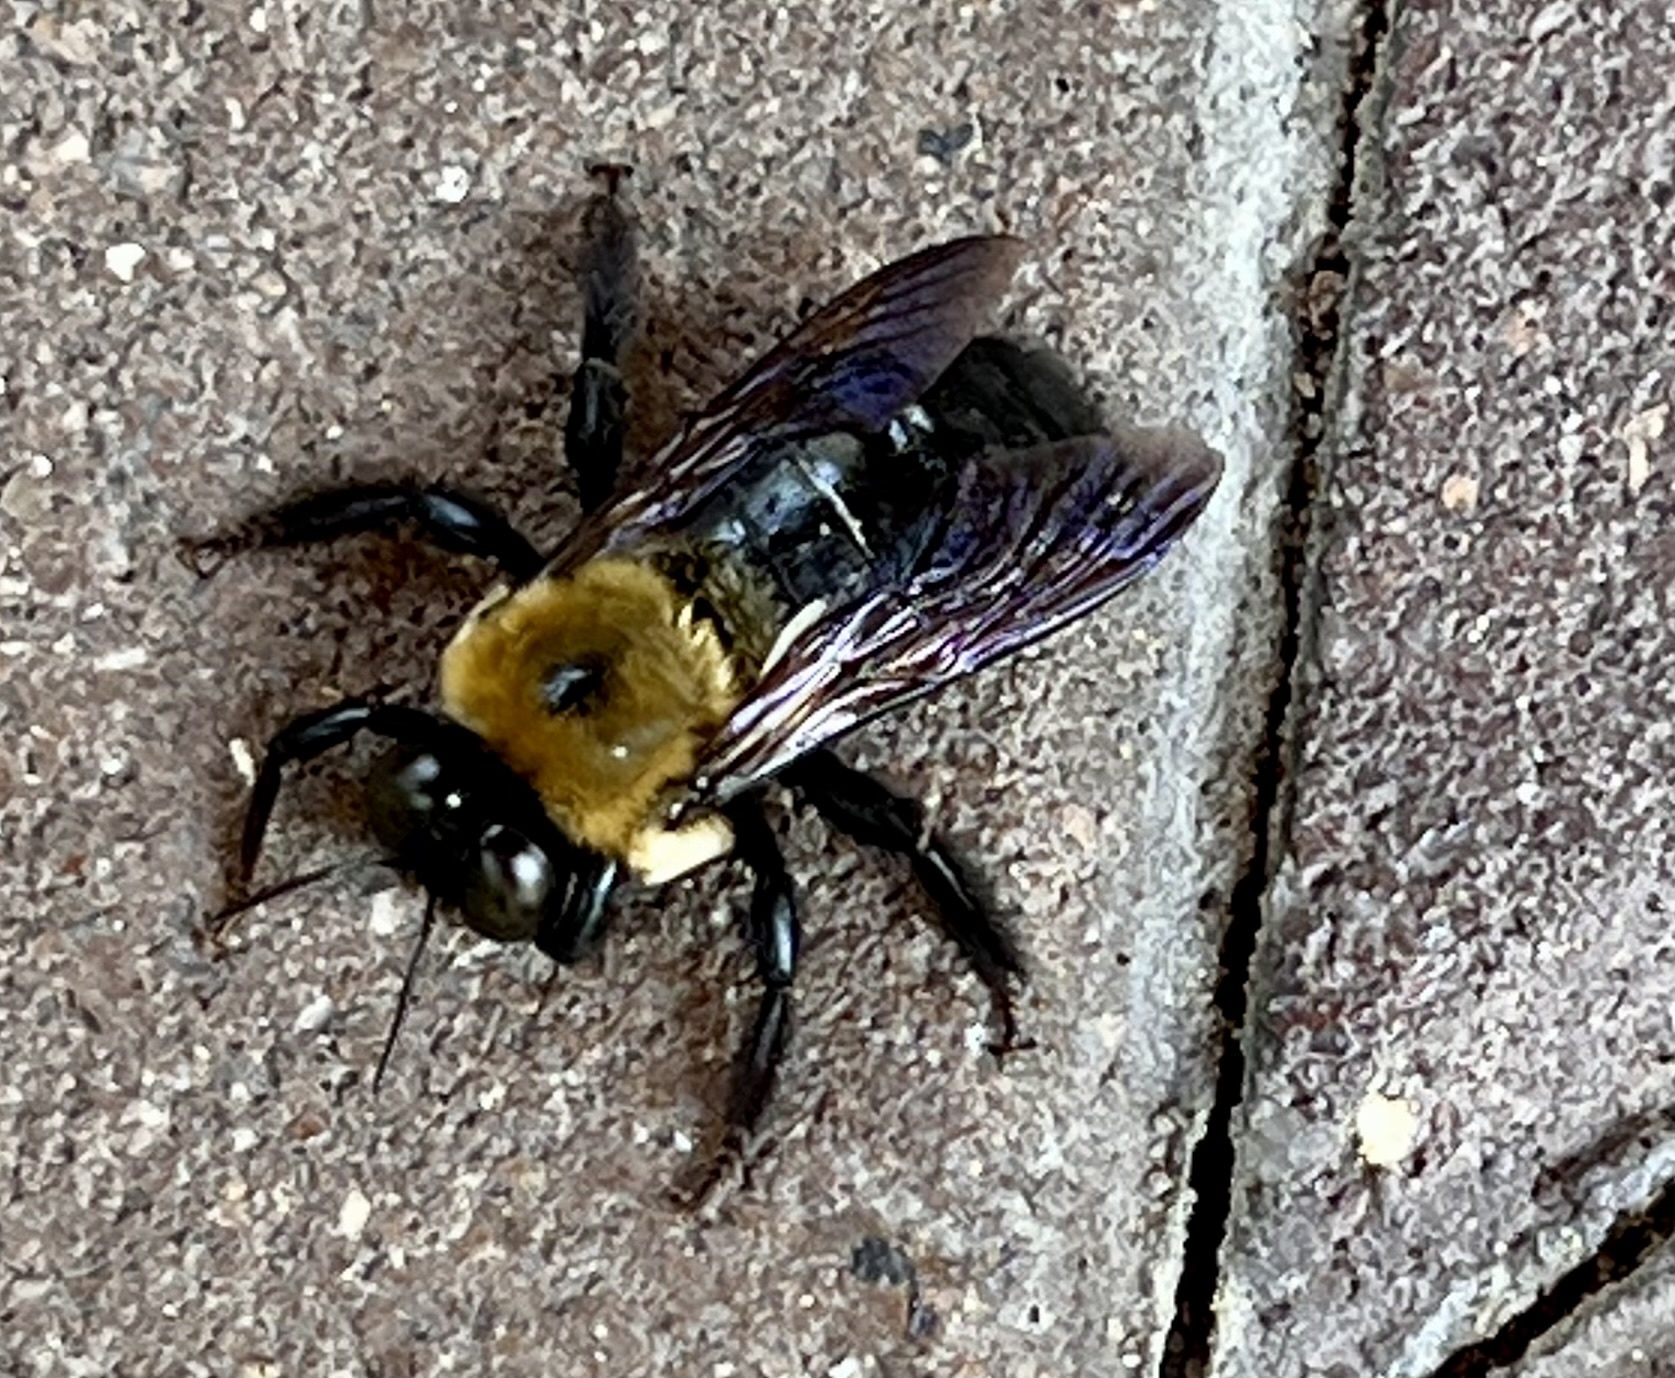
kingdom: Animalia
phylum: Arthropoda
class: Insecta
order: Hymenoptera
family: Apidae
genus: Xylocopa
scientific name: Xylocopa virginica
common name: Carpenter bee
